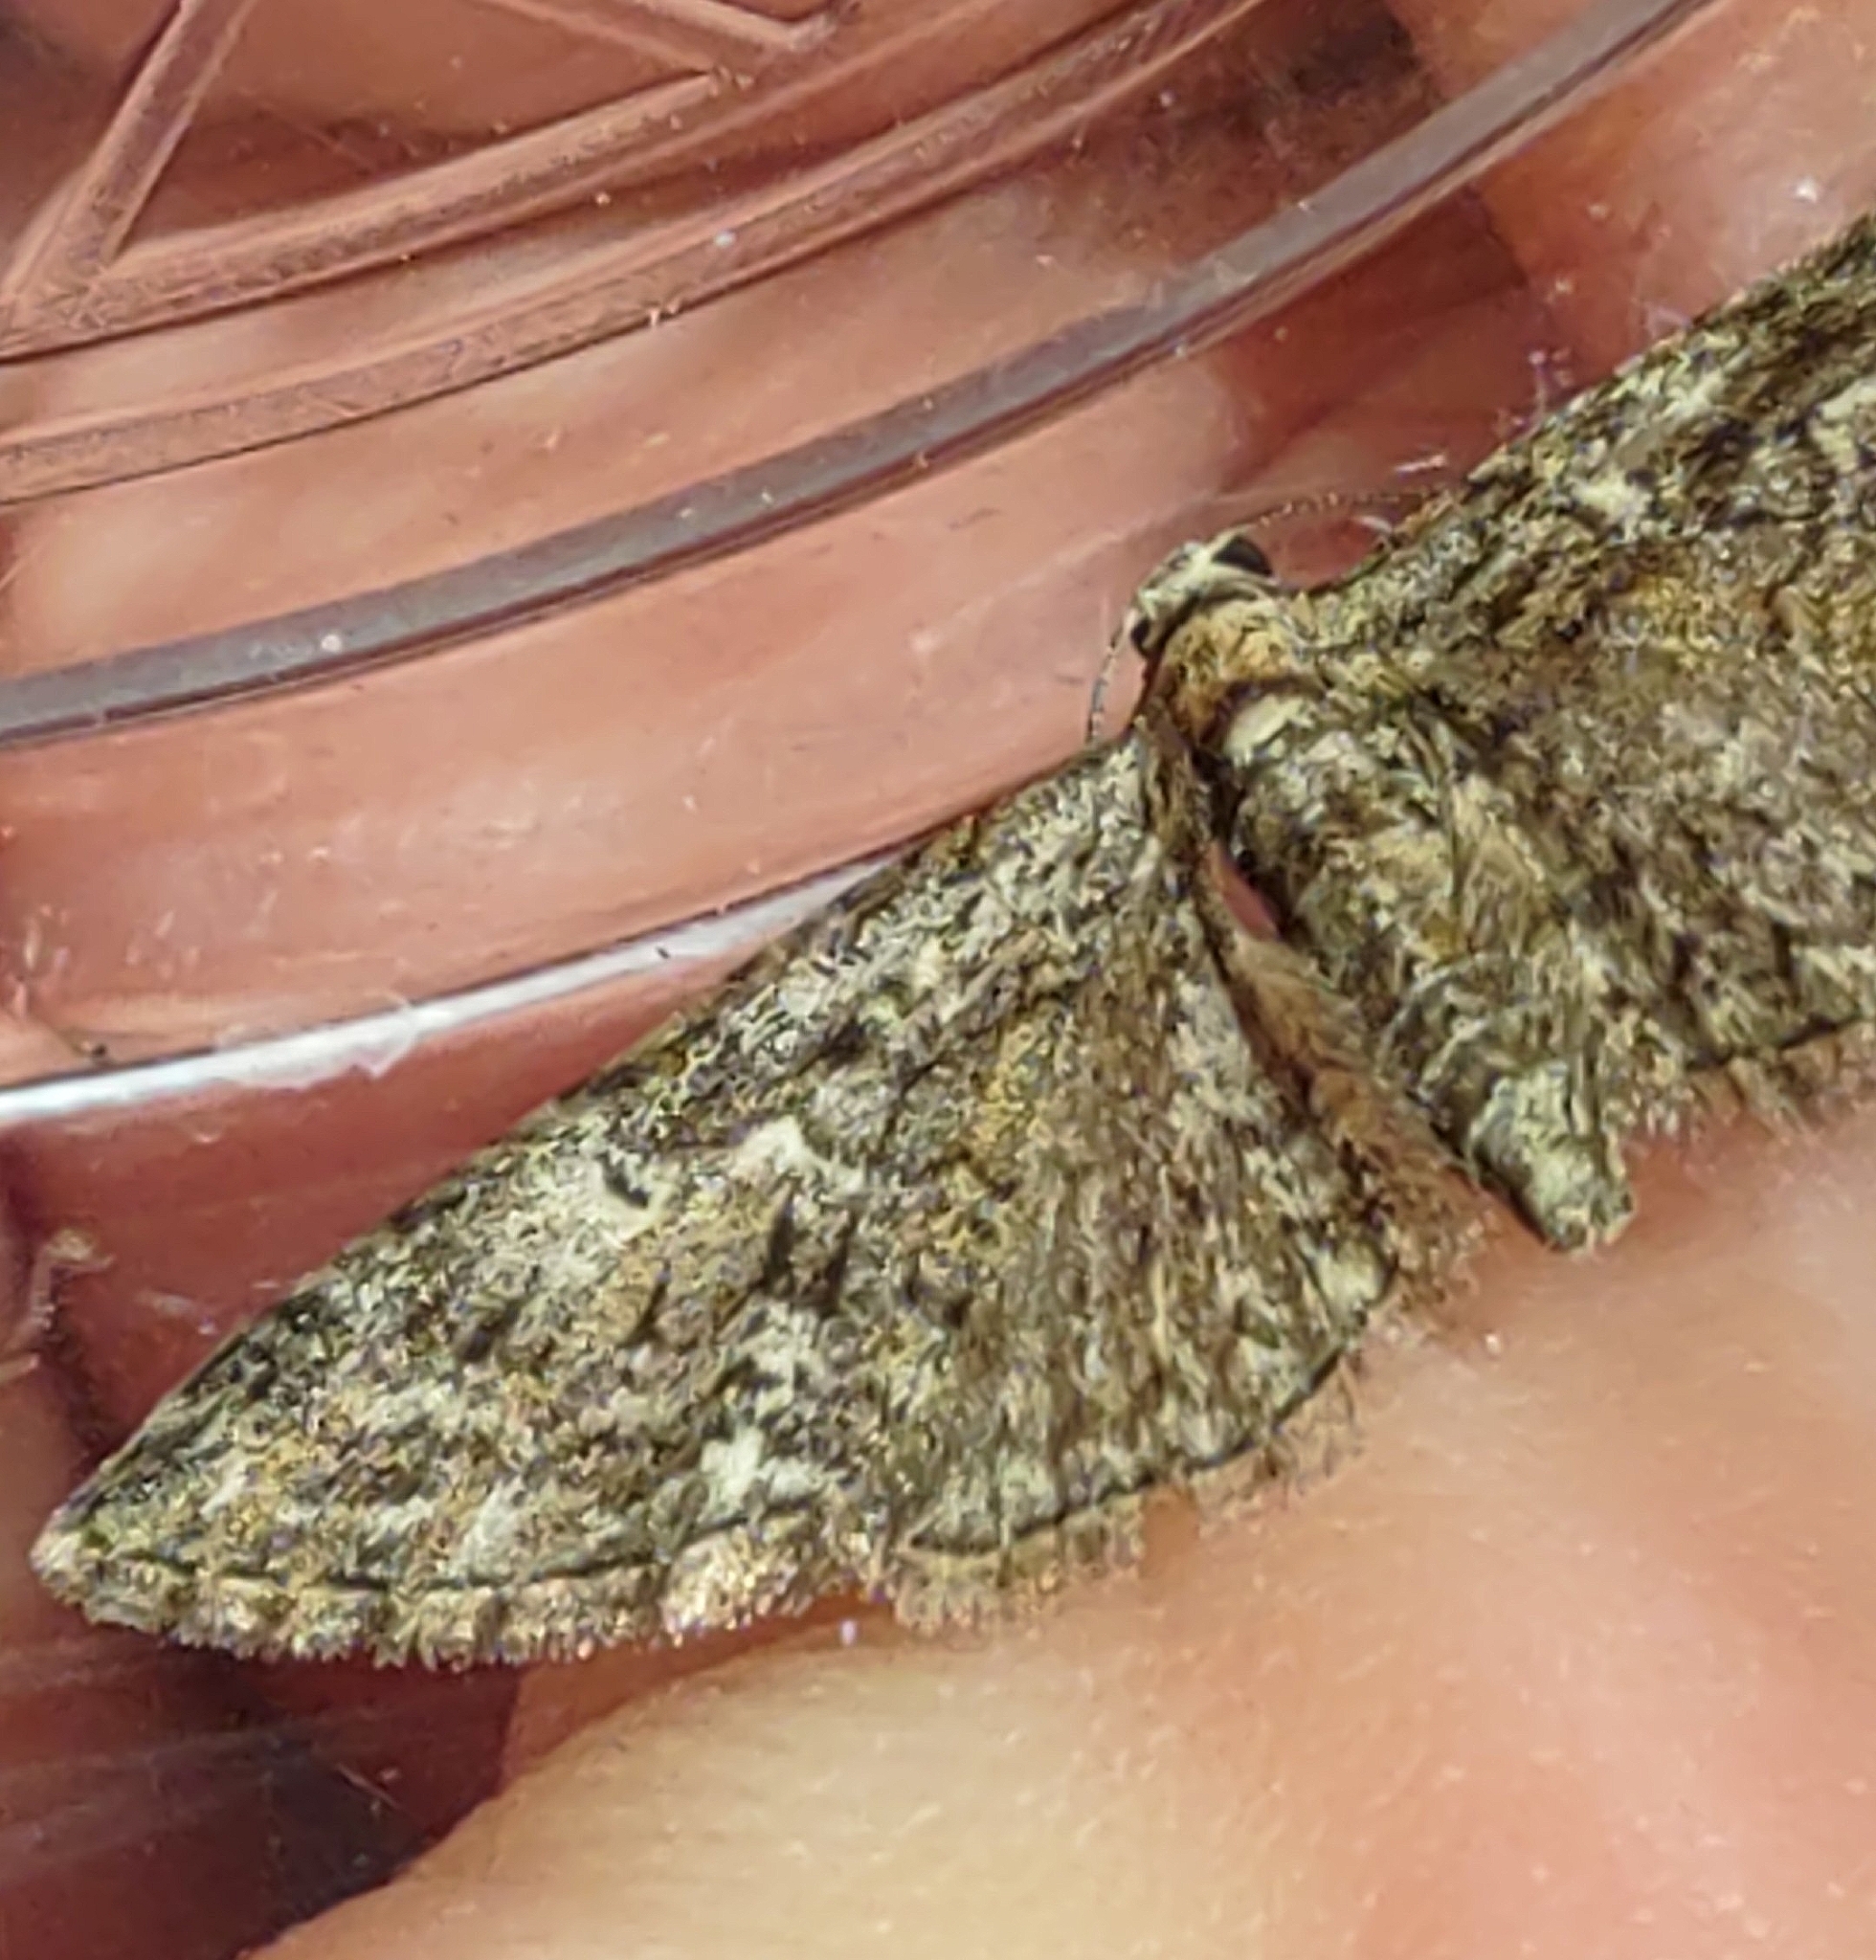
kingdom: Animalia
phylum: Arthropoda
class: Insecta
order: Lepidoptera
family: Geometridae
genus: Eupithecia
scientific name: Eupithecia abbreviata
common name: Brindled pug
